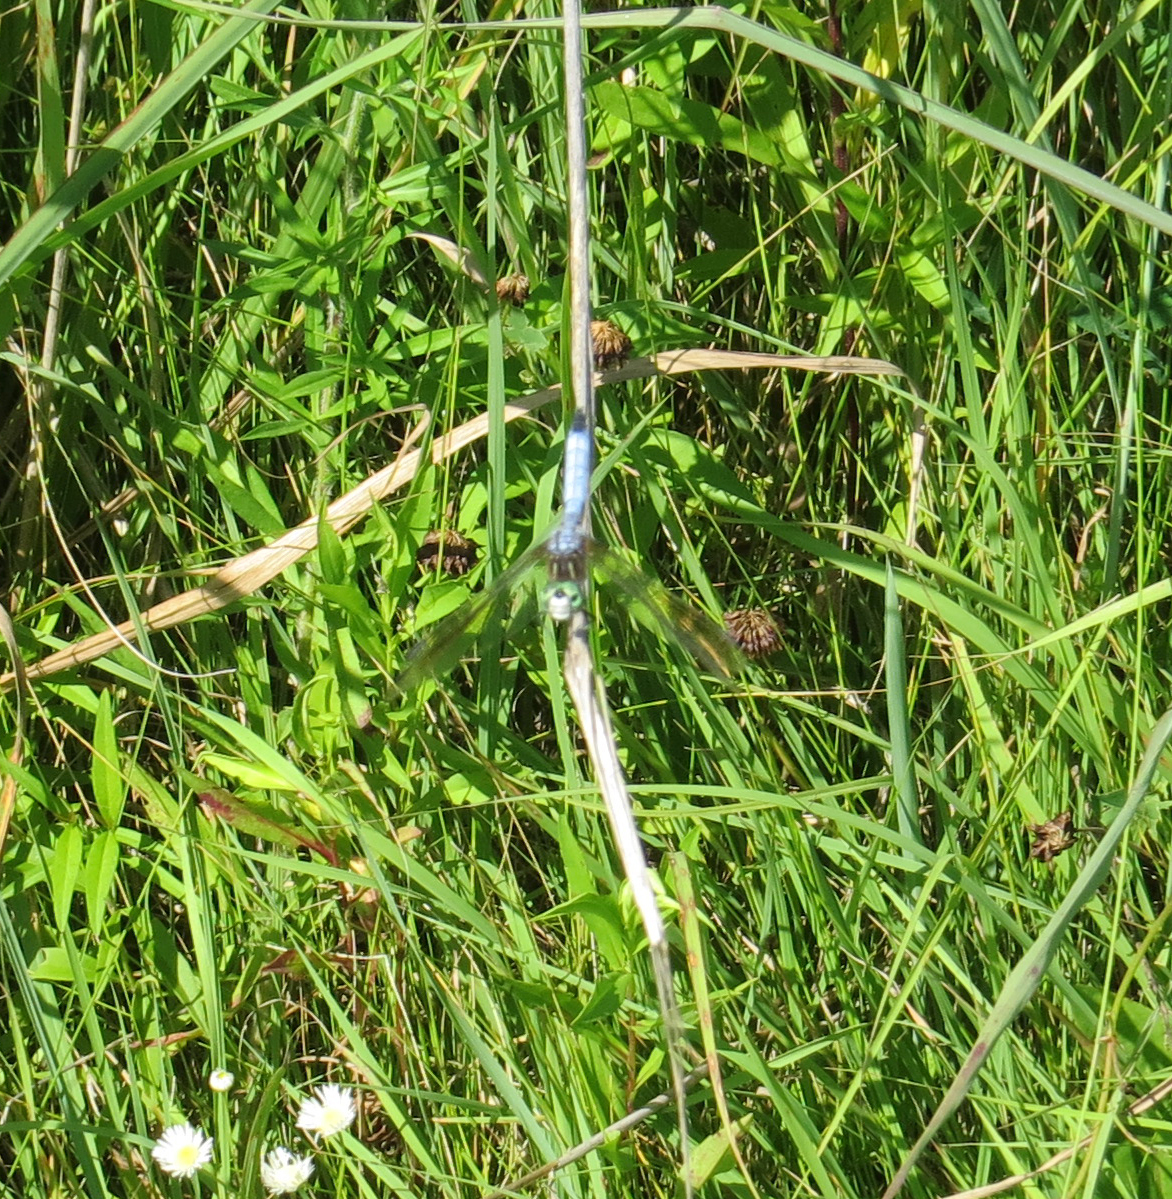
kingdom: Animalia
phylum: Arthropoda
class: Insecta
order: Odonata
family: Libellulidae
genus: Pachydiplax
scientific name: Pachydiplax longipennis
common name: Blue dasher
